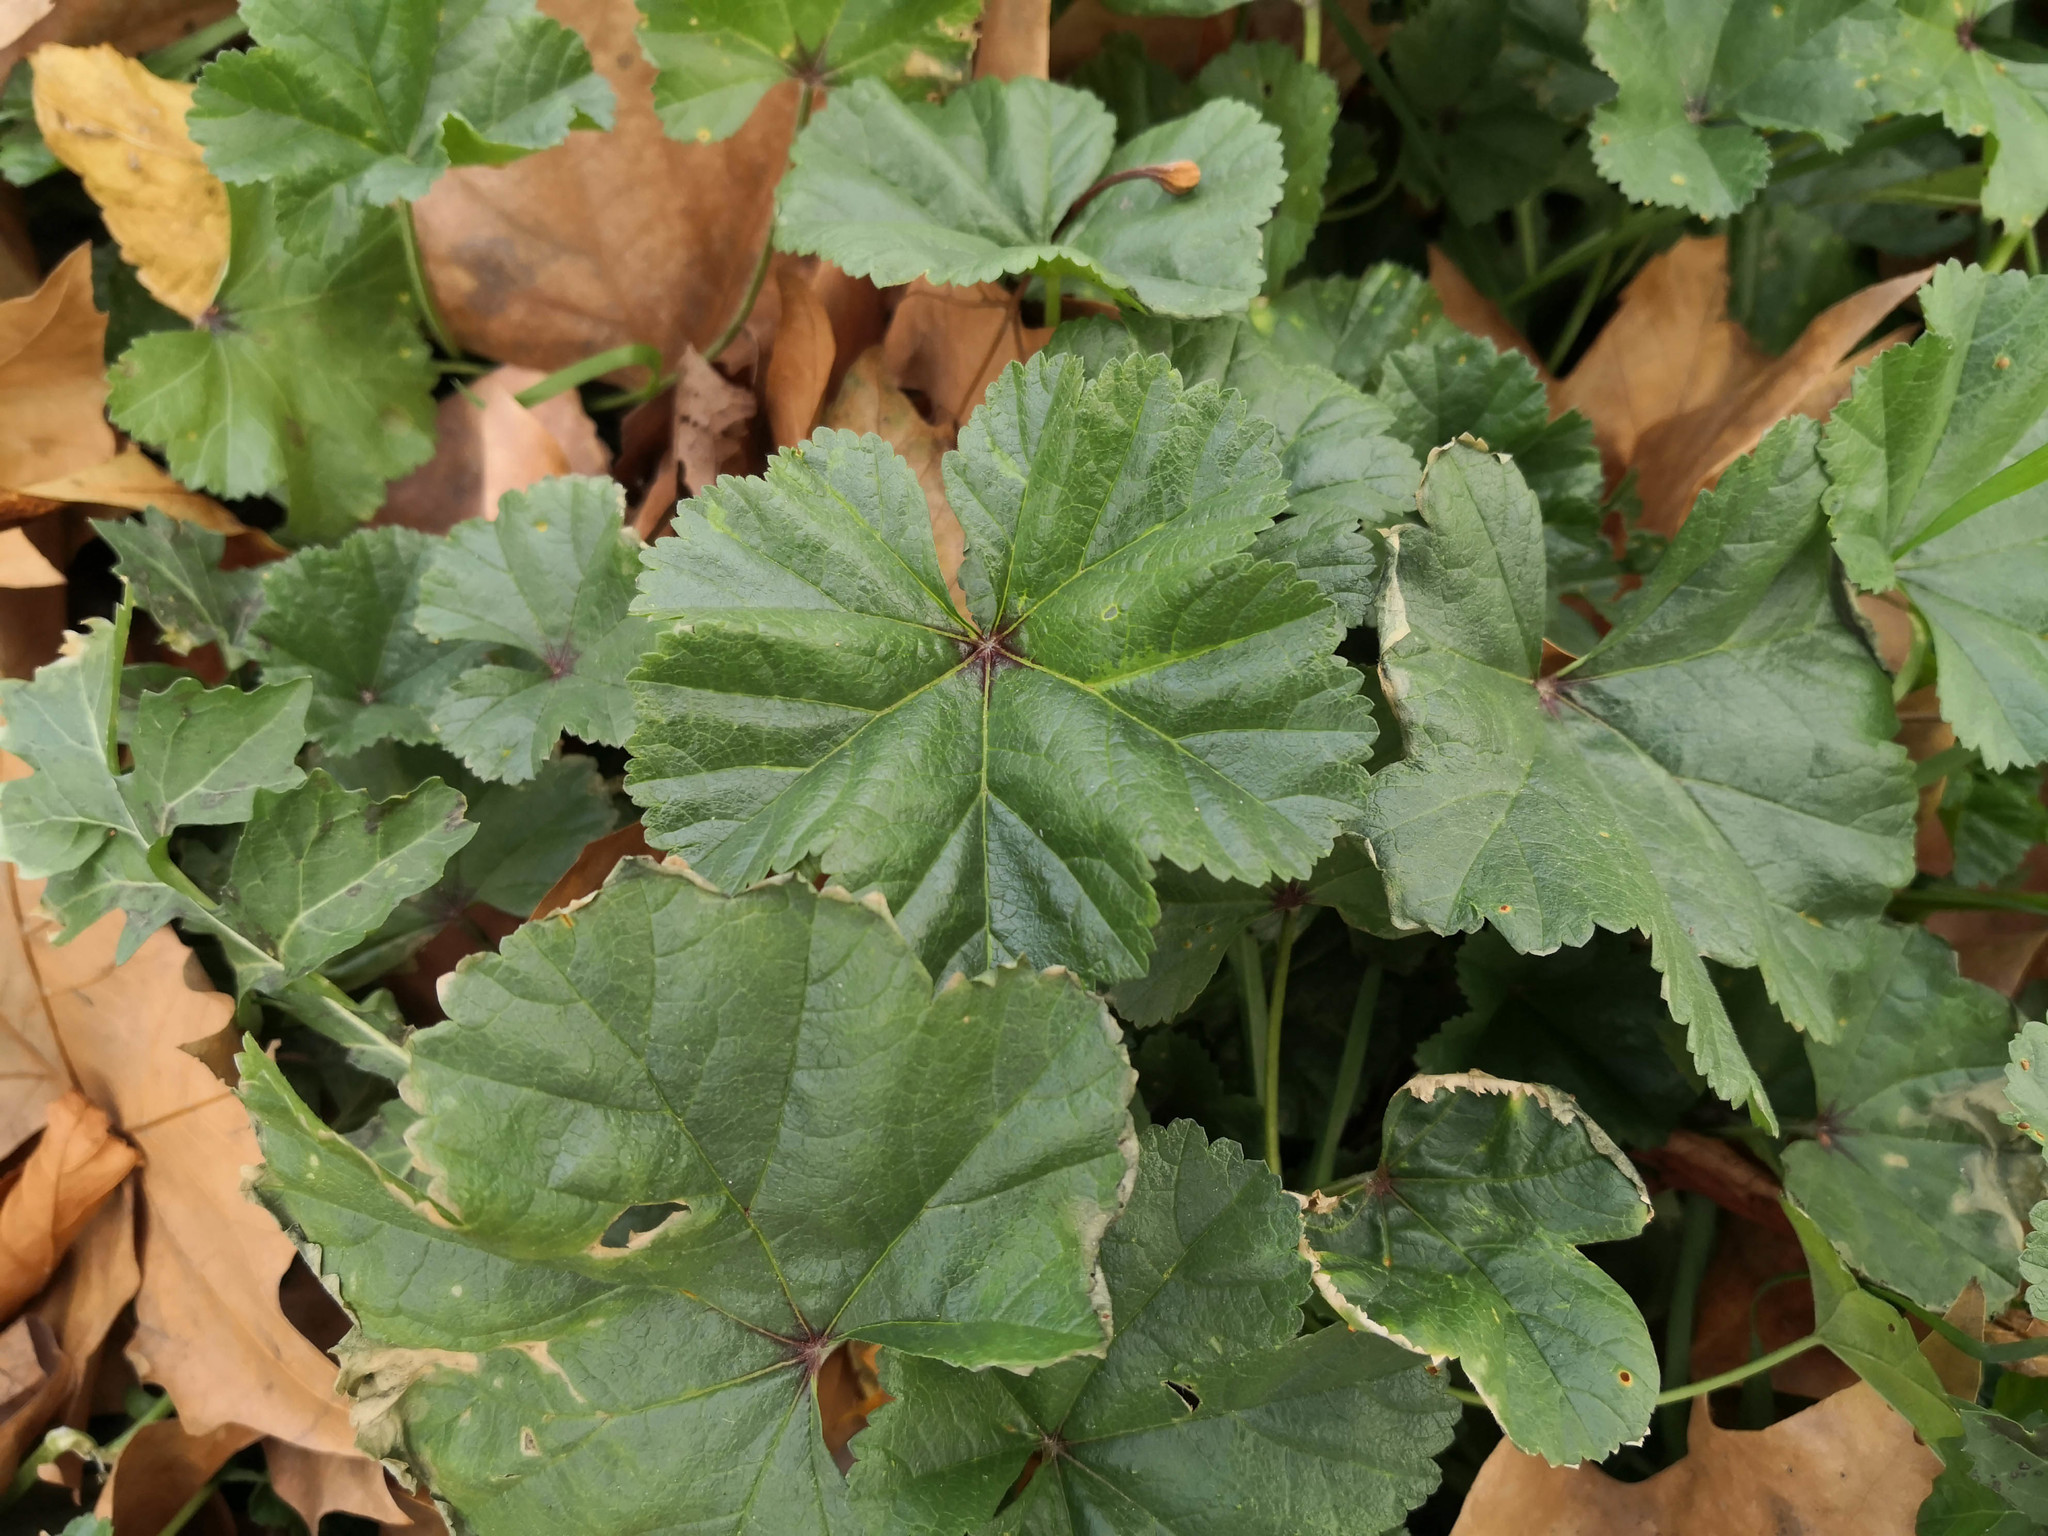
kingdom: Plantae
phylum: Tracheophyta
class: Magnoliopsida
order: Malvales
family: Malvaceae
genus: Malva
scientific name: Malva sylvestris
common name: Common mallow
